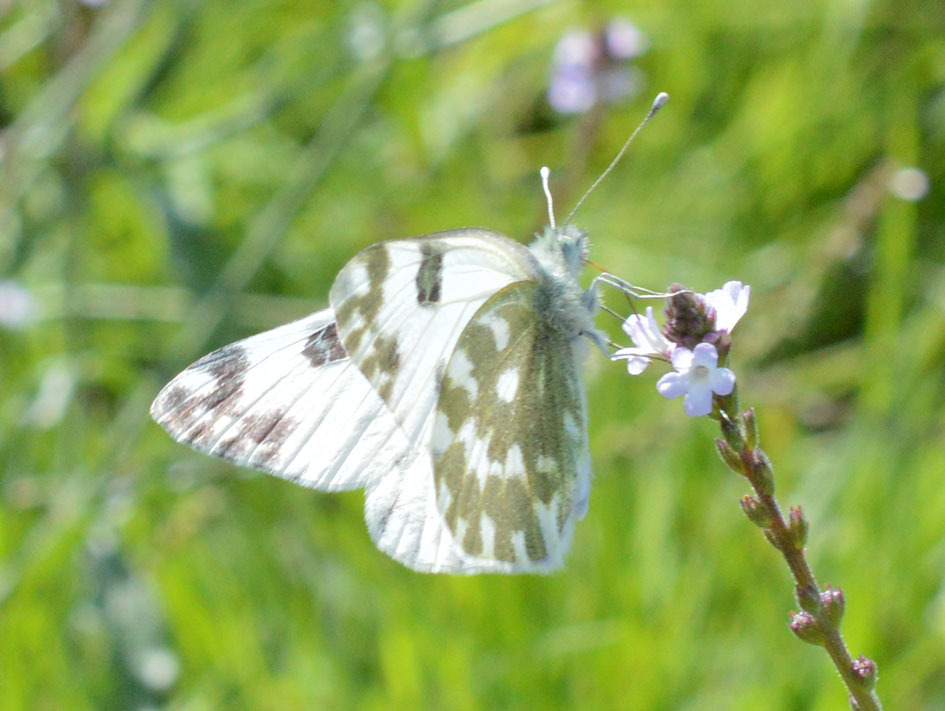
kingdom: Animalia
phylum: Arthropoda
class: Insecta
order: Lepidoptera
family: Pieridae
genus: Pontia
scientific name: Pontia edusa
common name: Eastern bath white
